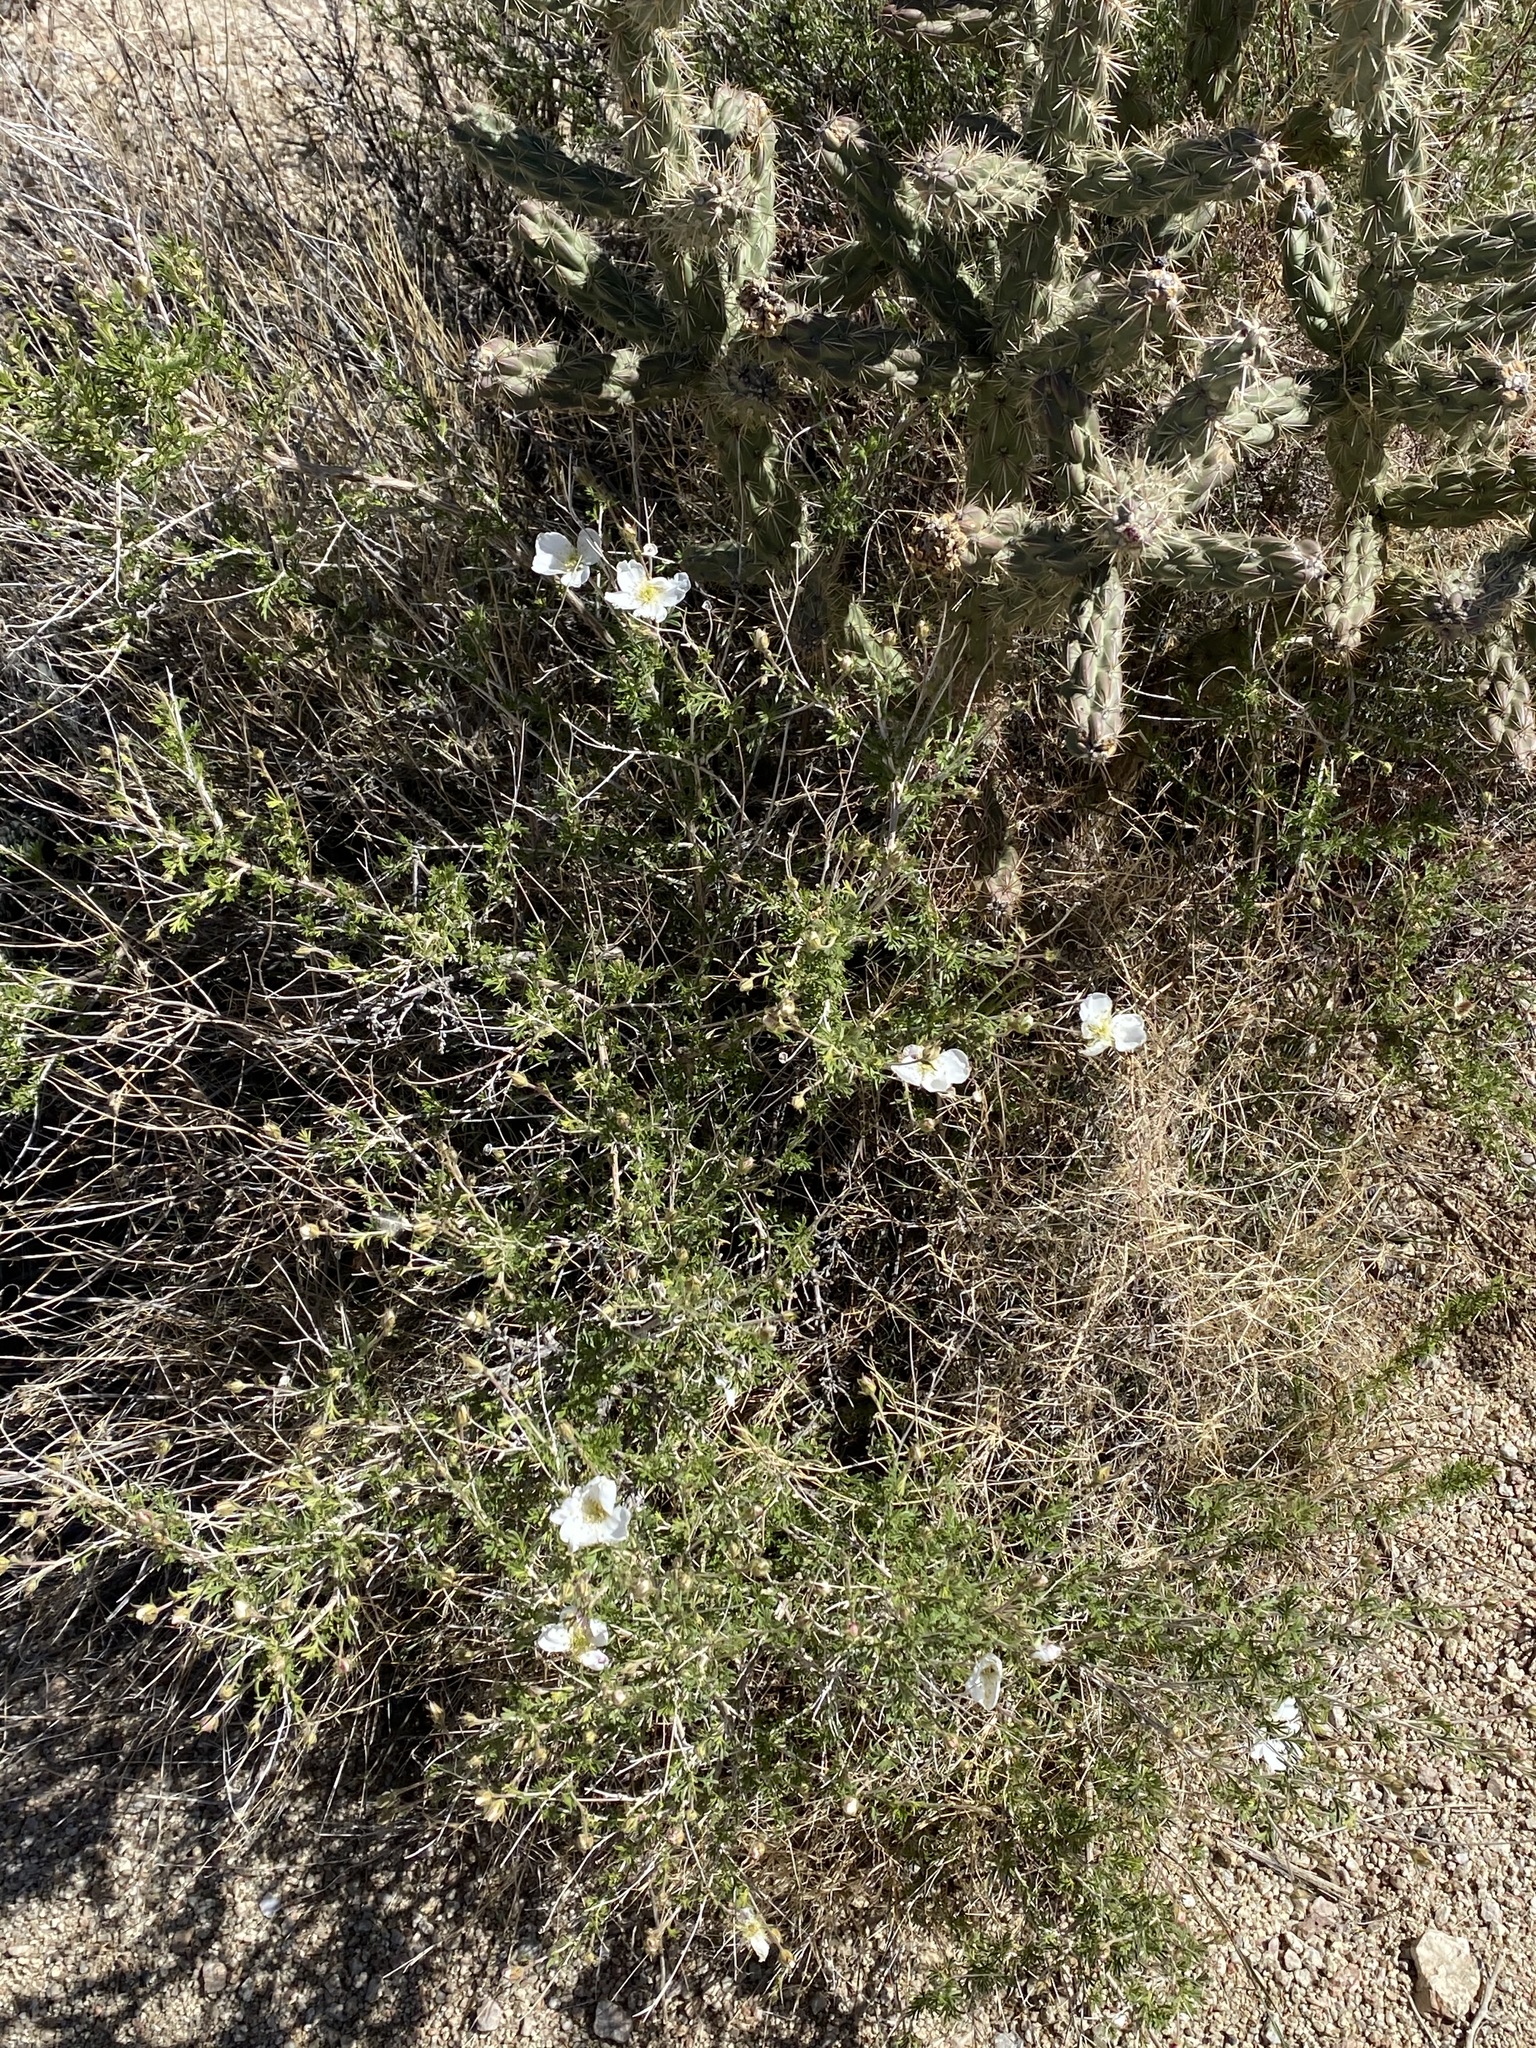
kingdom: Plantae
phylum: Tracheophyta
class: Magnoliopsida
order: Rosales
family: Rosaceae
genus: Fallugia
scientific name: Fallugia paradoxa
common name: Apache-plume
